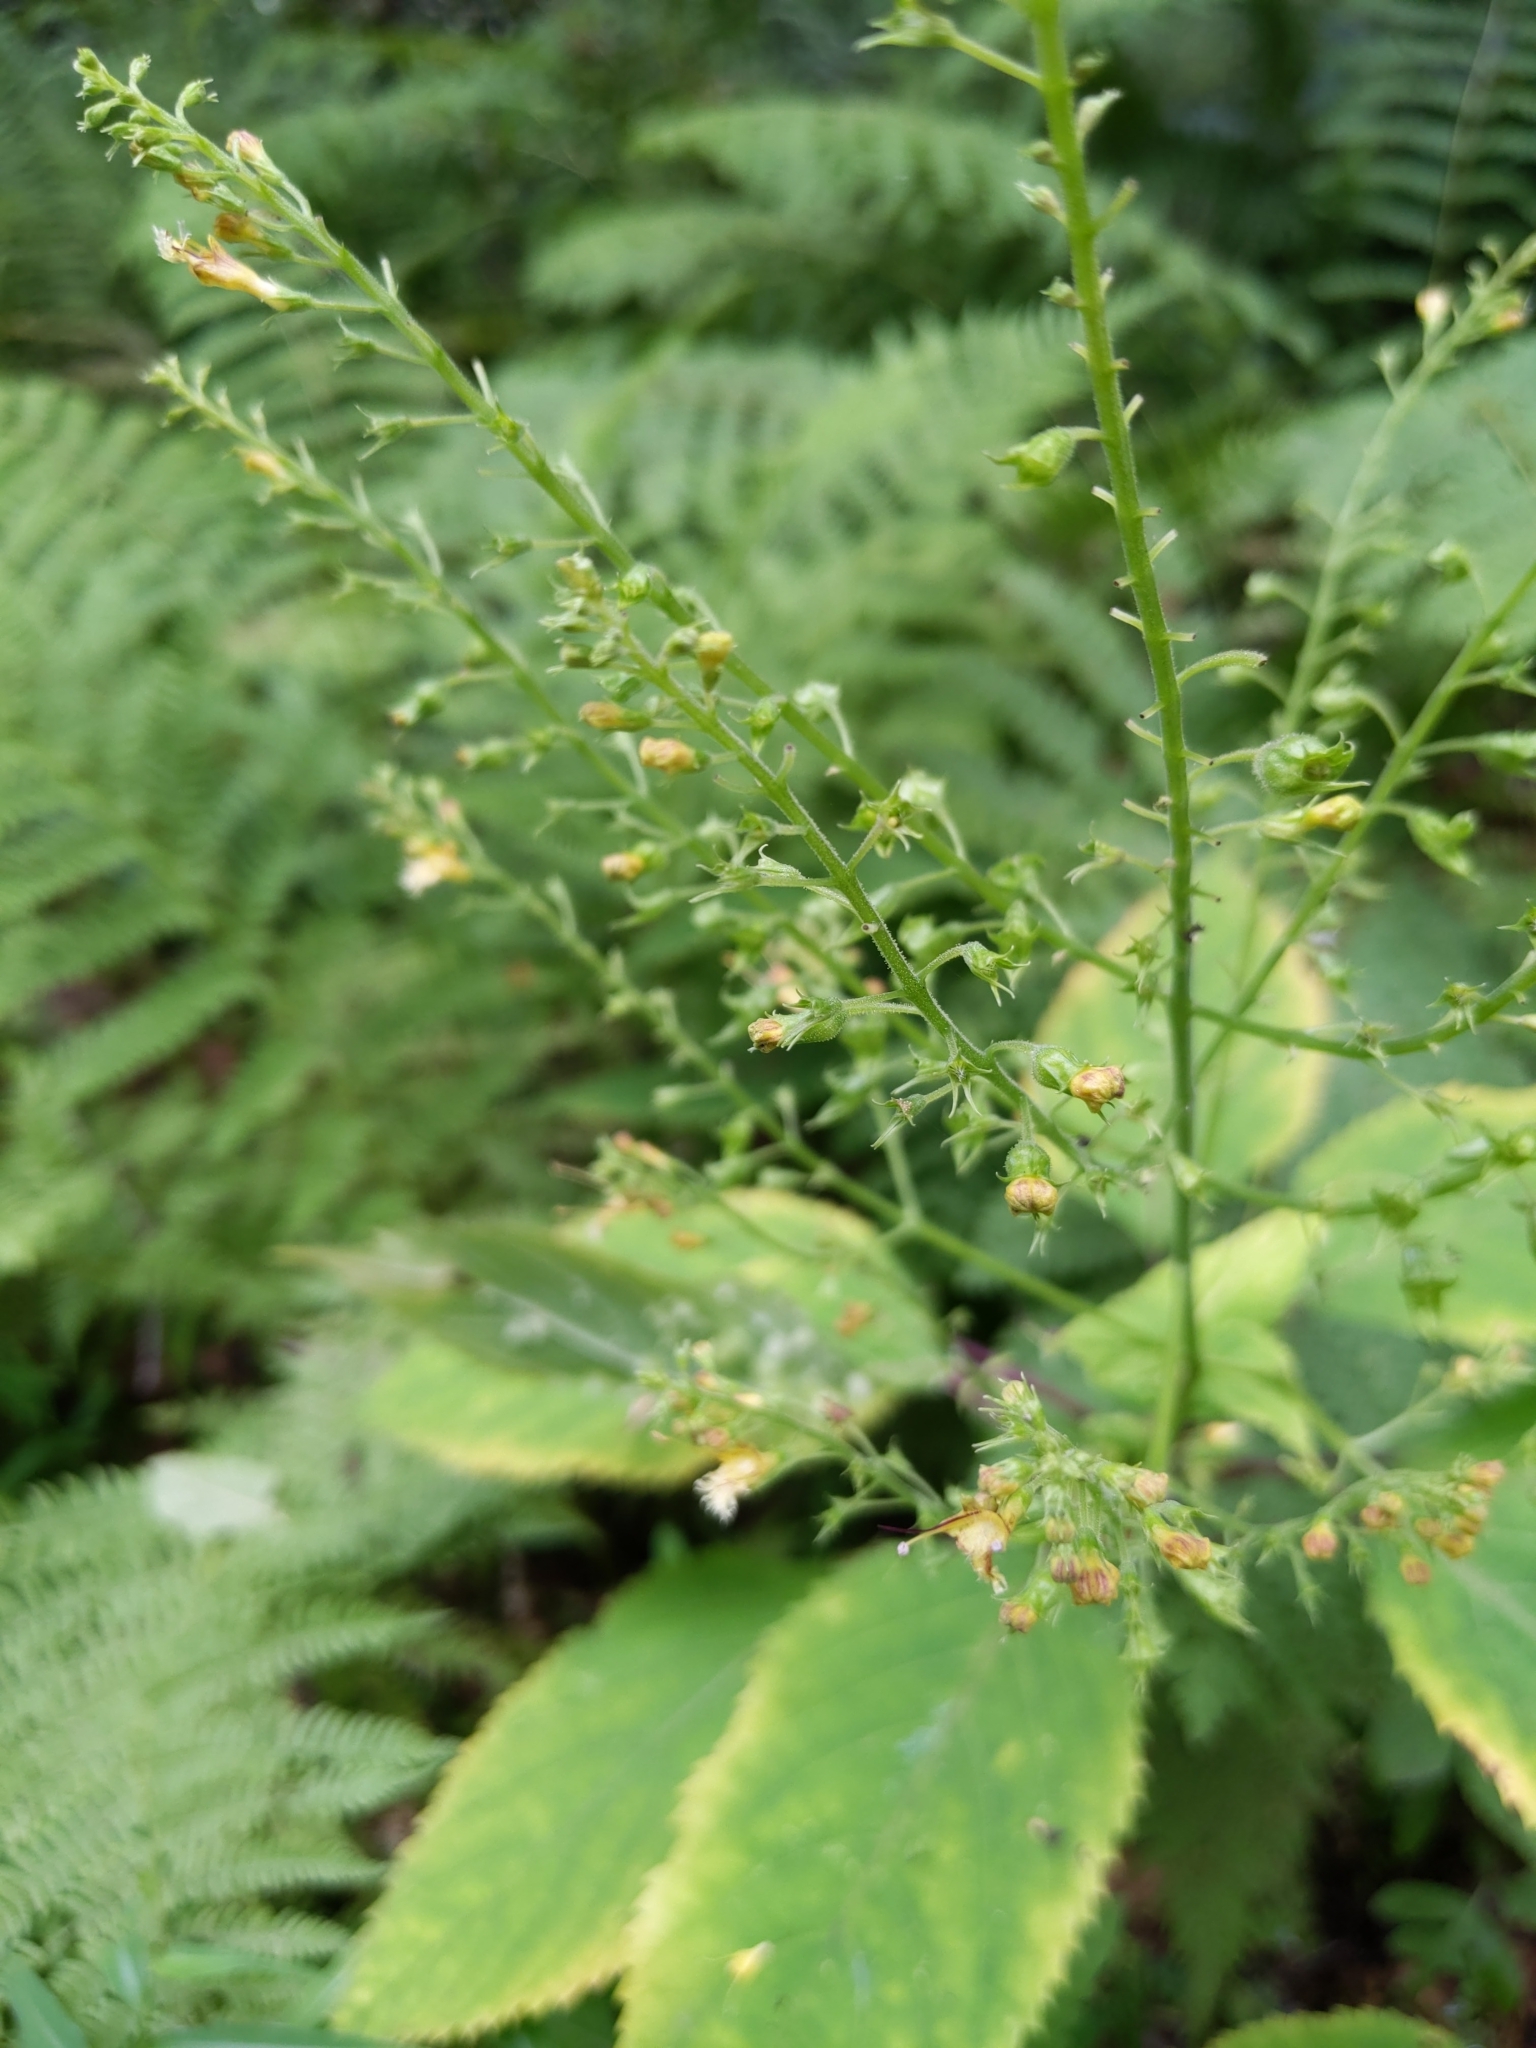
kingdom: Plantae
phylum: Tracheophyta
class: Magnoliopsida
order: Lamiales
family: Lamiaceae
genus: Collinsonia
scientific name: Collinsonia canadensis
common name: Northern horsebalm
